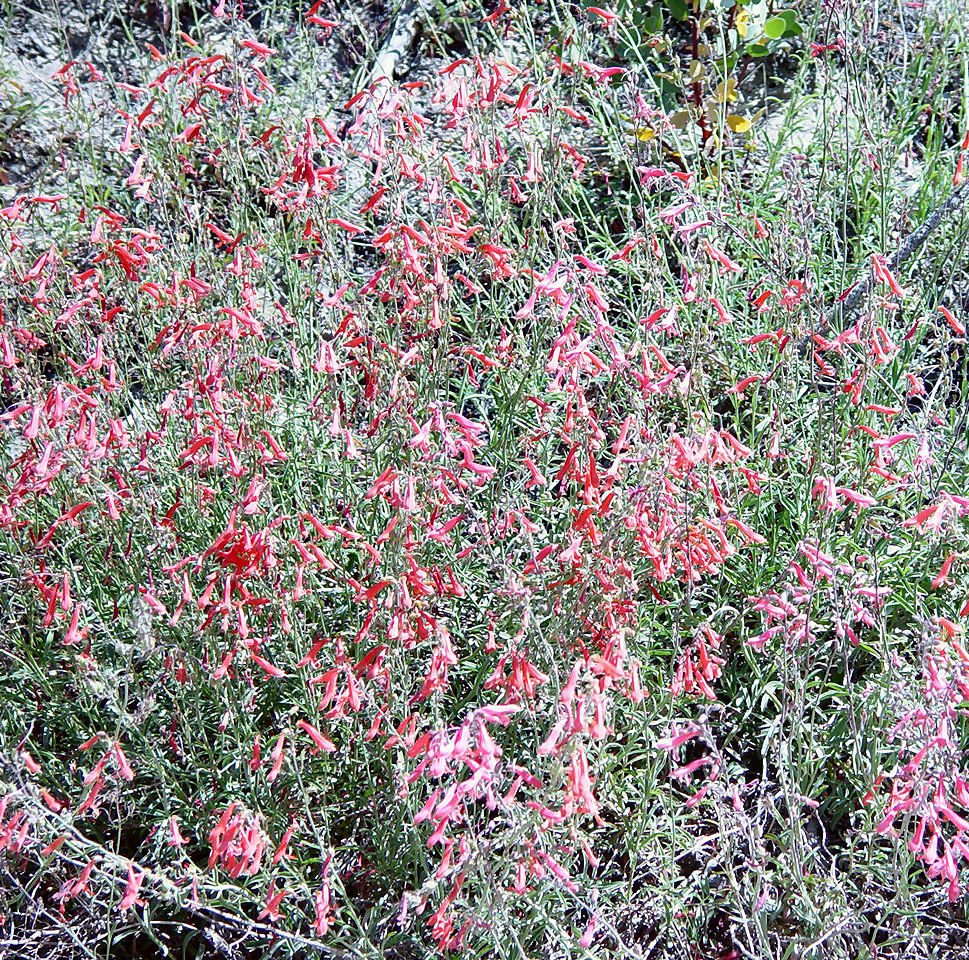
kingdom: Plantae
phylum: Tracheophyta
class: Magnoliopsida
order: Lamiales
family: Plantaginaceae
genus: Penstemon
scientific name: Penstemon rostriflorus
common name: Bridges's penstemon
